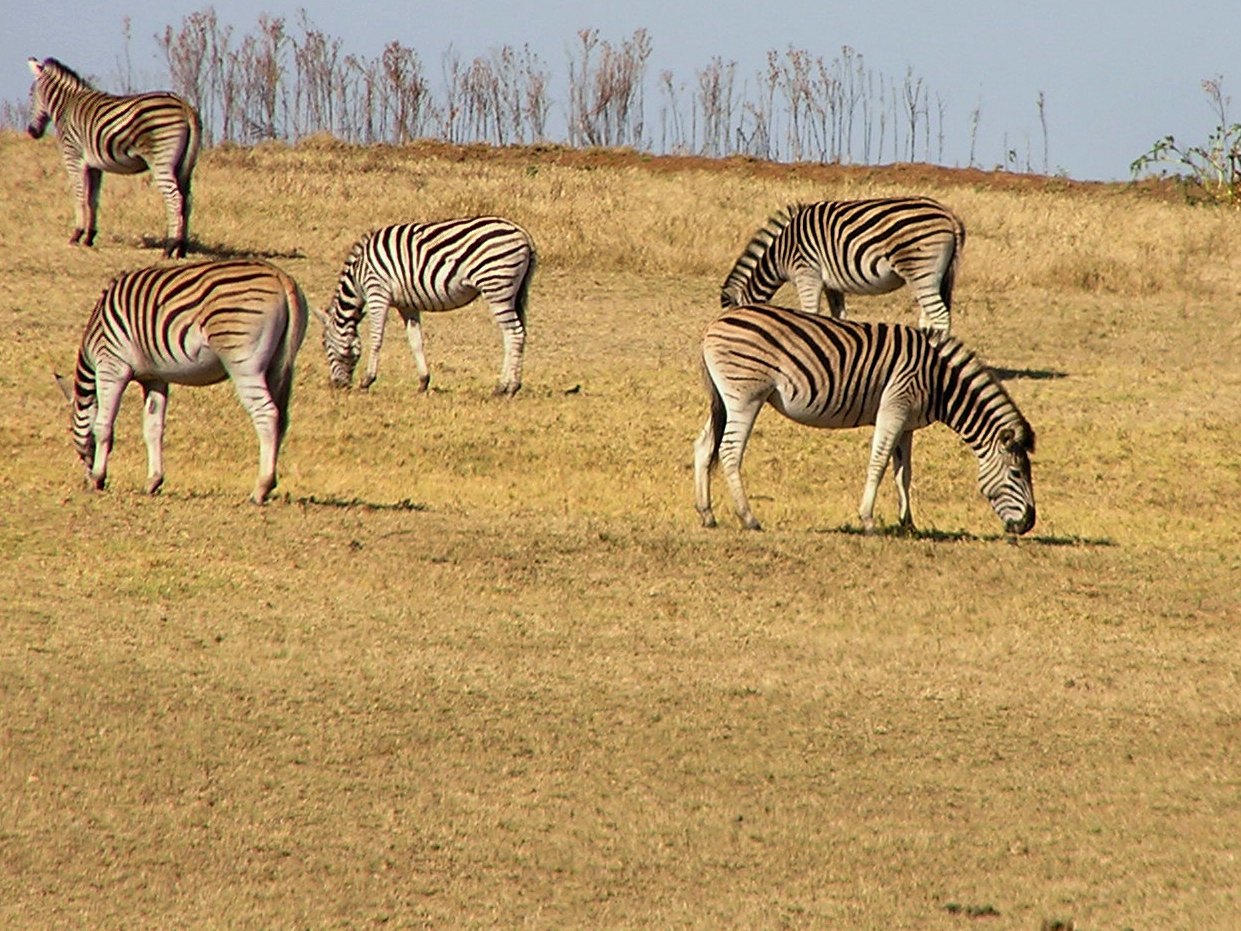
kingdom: Animalia
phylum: Chordata
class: Mammalia
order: Perissodactyla
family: Equidae
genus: Equus
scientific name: Equus quagga
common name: Plains zebra
